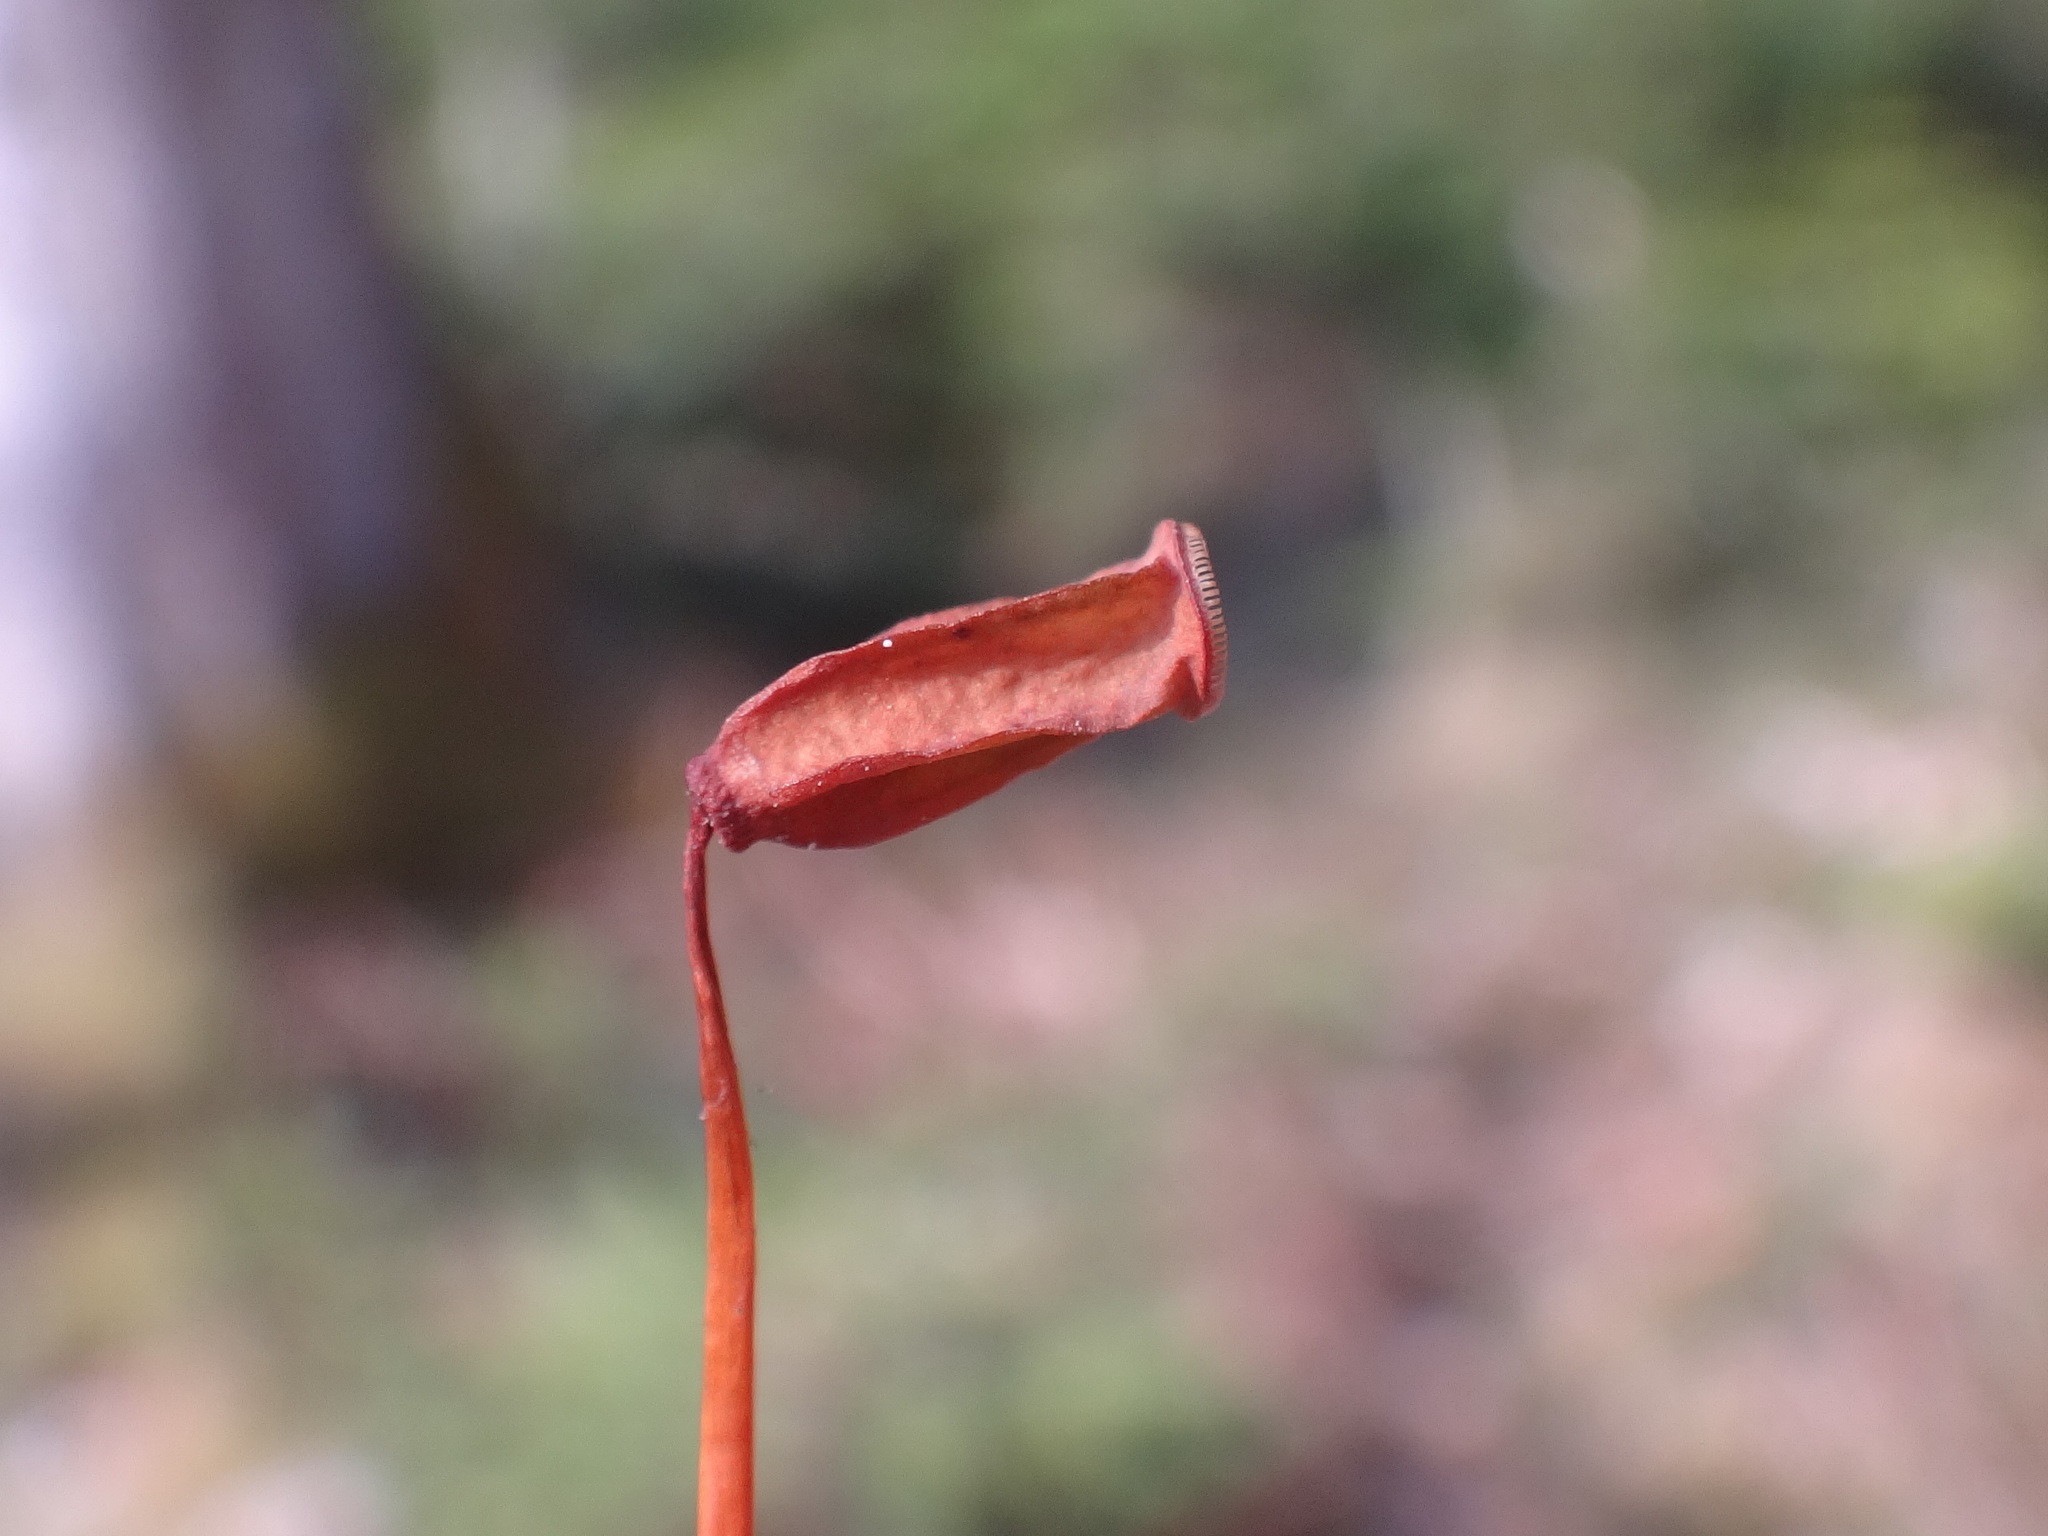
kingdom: Plantae
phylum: Bryophyta
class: Polytrichopsida
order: Polytrichales
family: Polytrichaceae
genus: Polytrichum
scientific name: Polytrichum formosum
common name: Bank haircap moss
